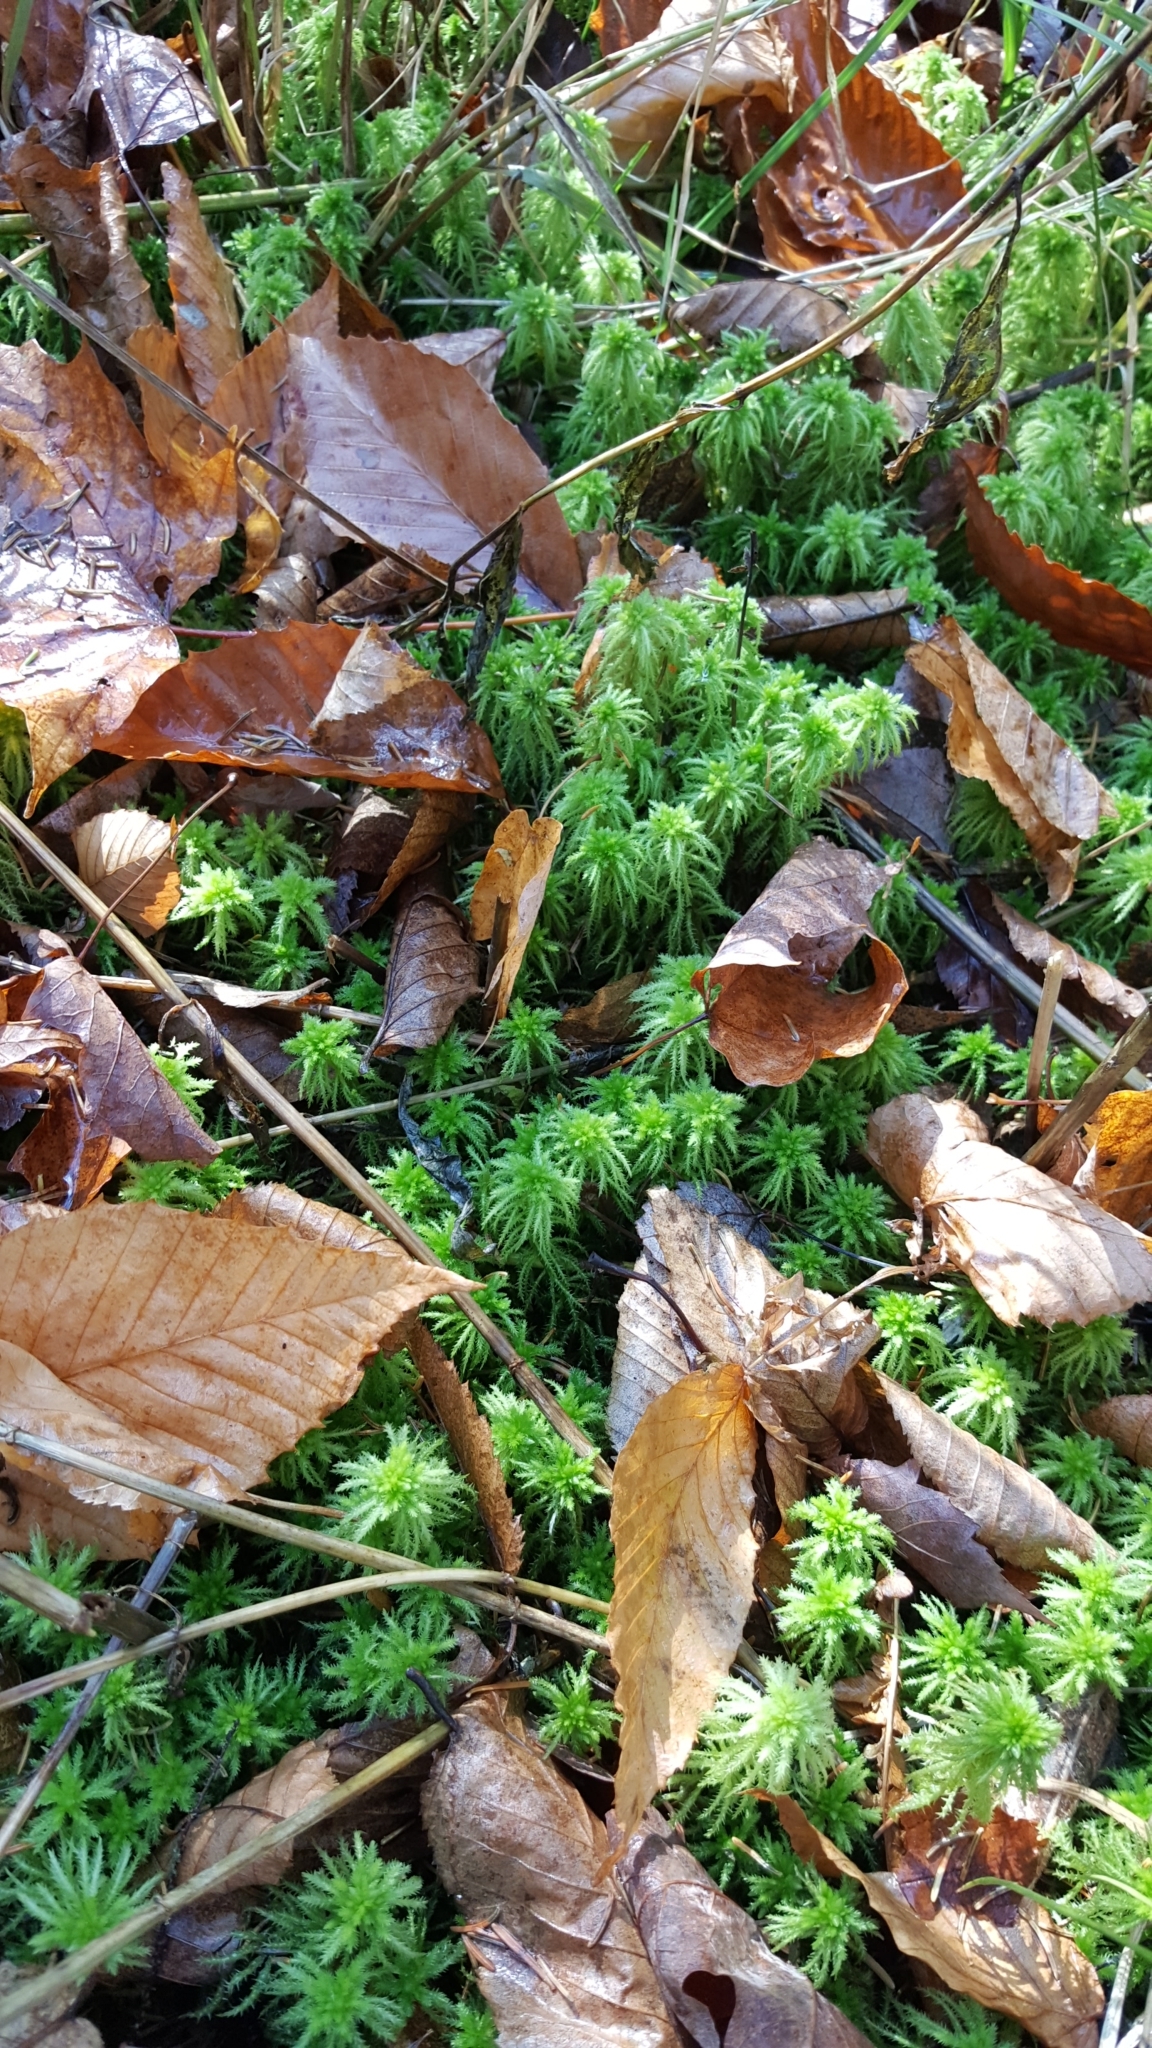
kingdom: Plantae
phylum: Bryophyta
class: Sphagnopsida
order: Sphagnales
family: Sphagnaceae
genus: Sphagnum
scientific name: Sphagnum squarrosum
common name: Shaggy peat moss
